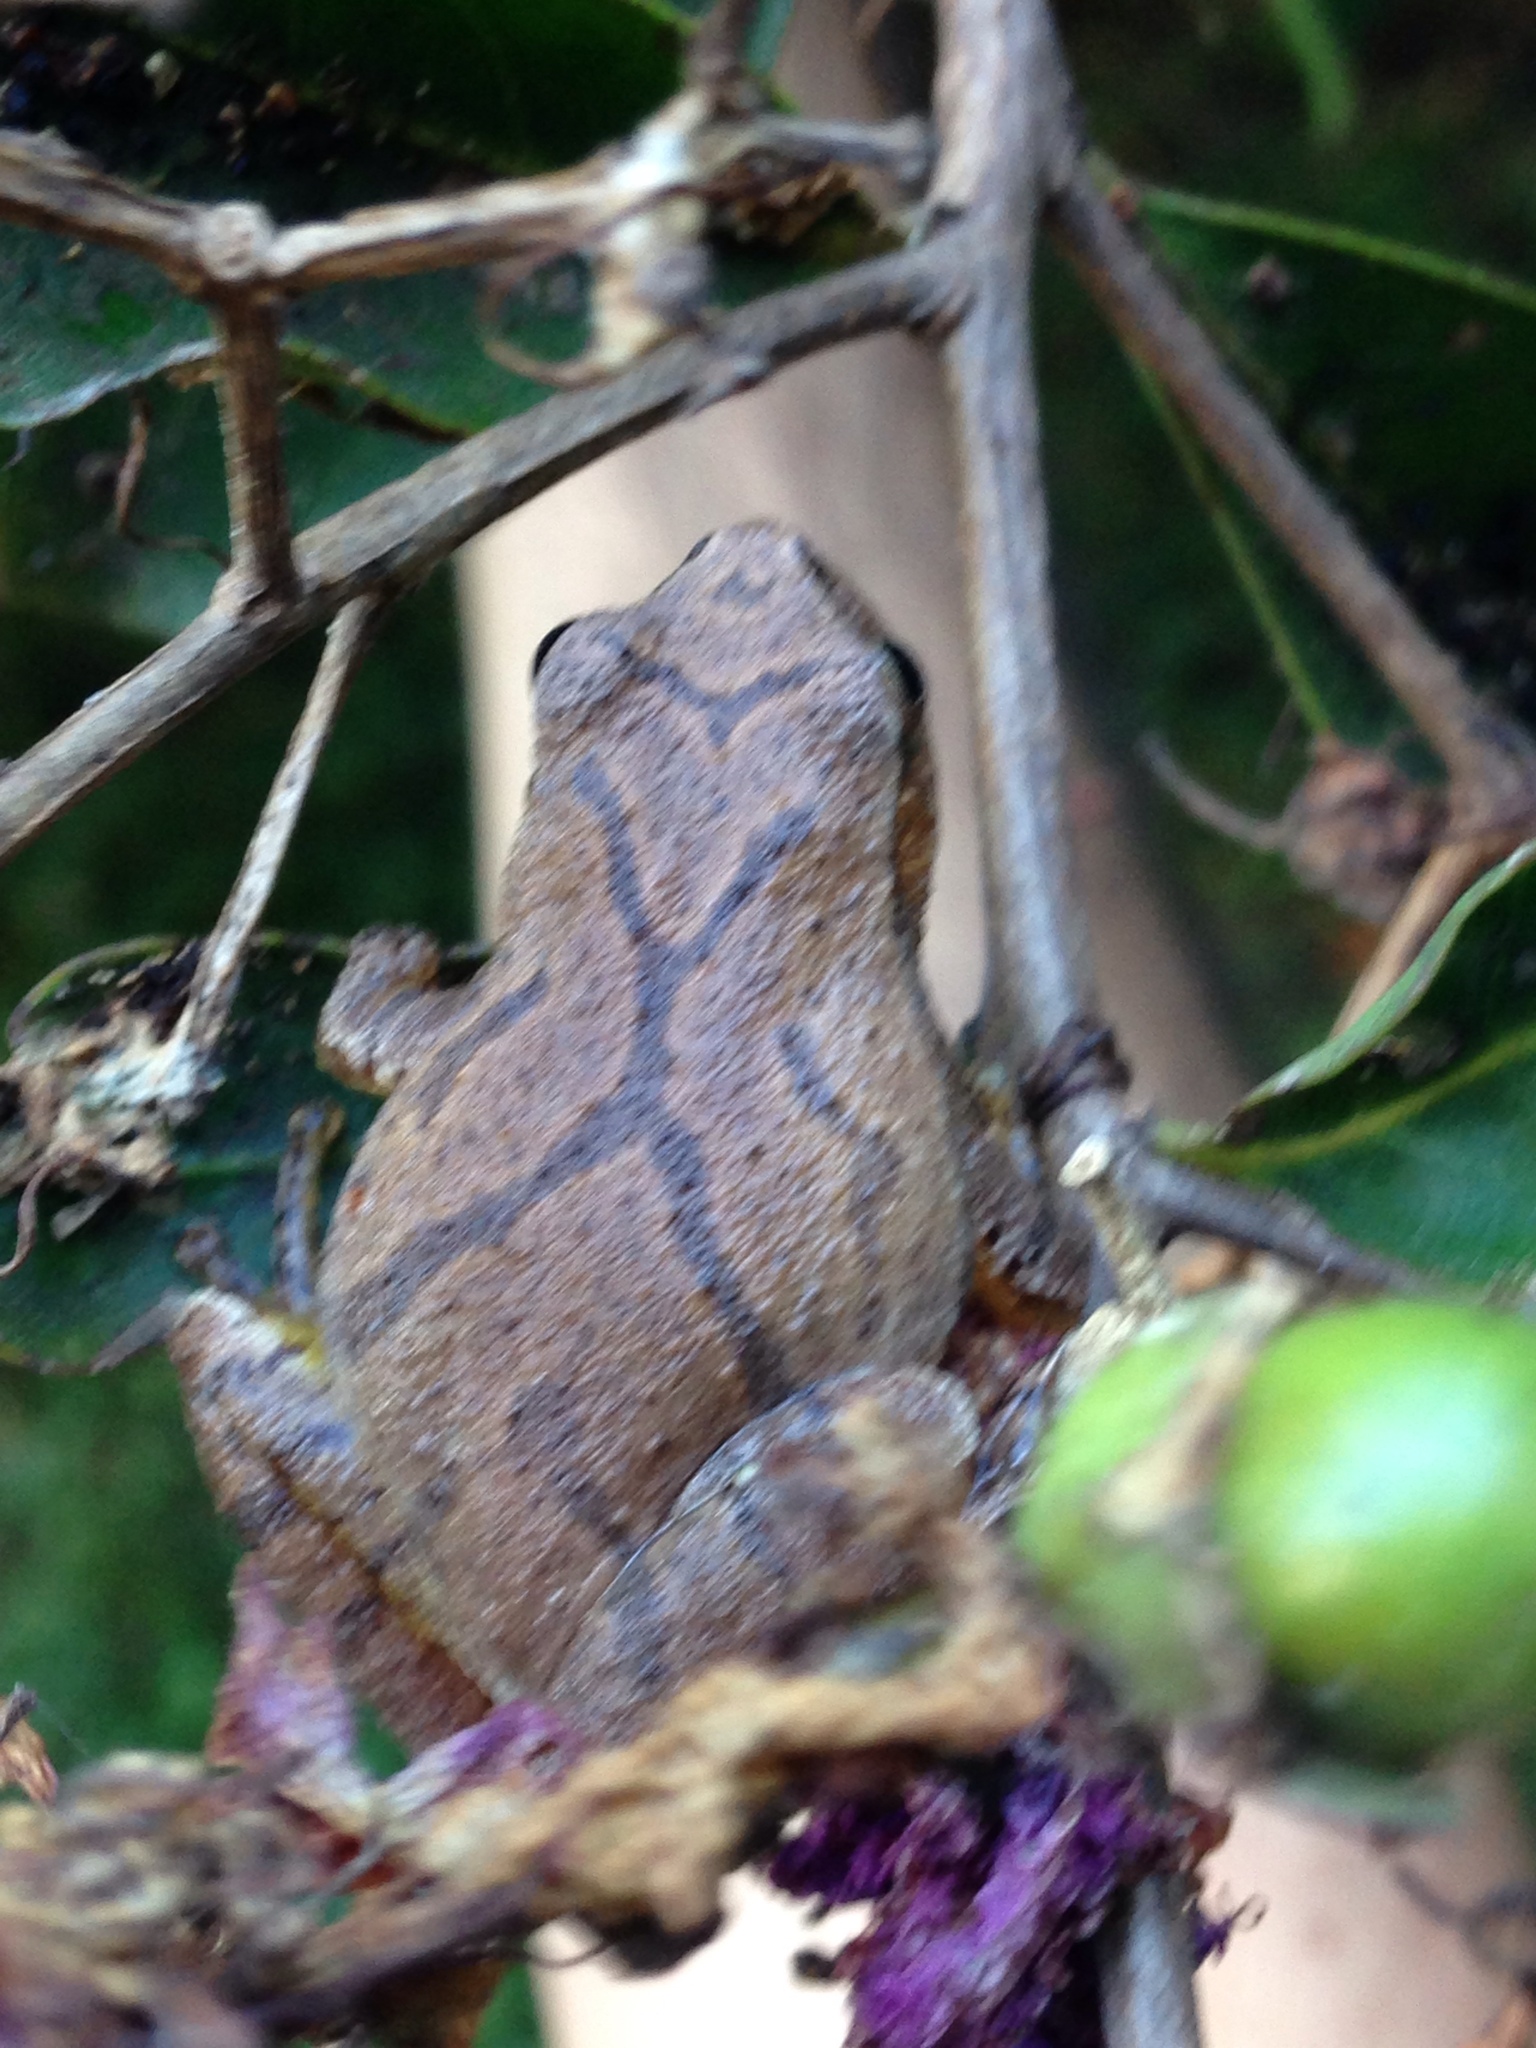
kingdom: Animalia
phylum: Chordata
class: Amphibia
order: Anura
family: Hylidae
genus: Pseudacris
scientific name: Pseudacris crucifer
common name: Spring peeper
